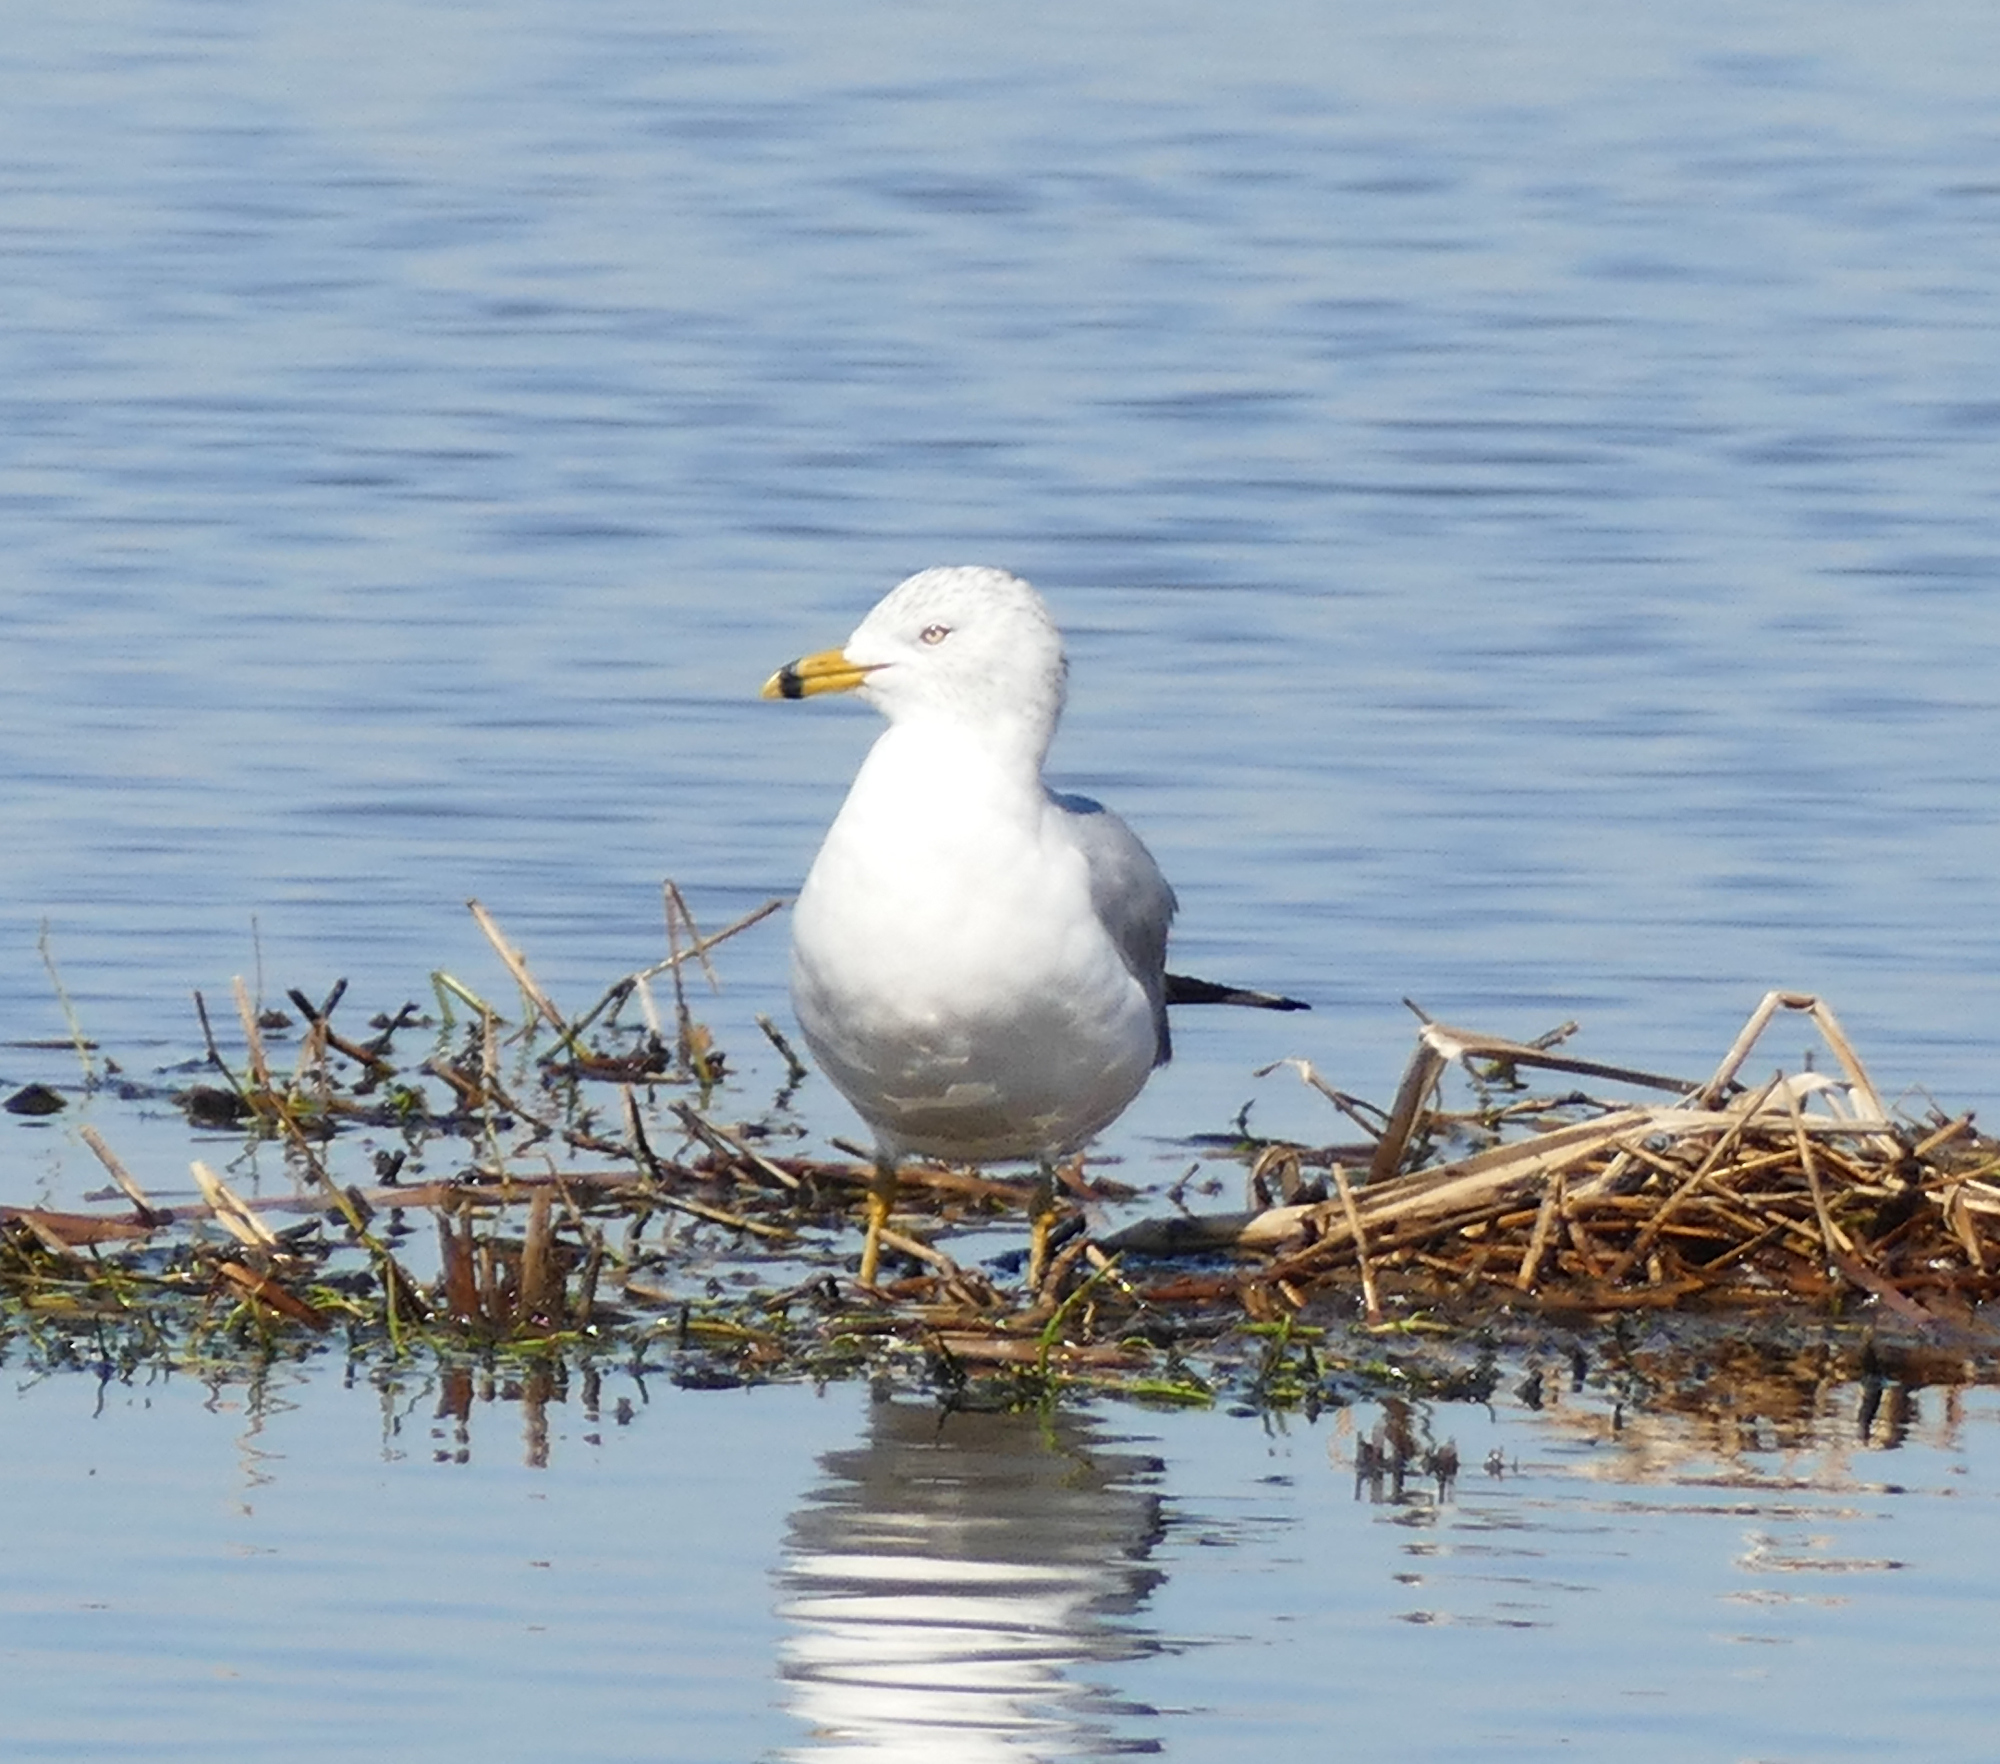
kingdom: Animalia
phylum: Chordata
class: Aves
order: Charadriiformes
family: Laridae
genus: Larus
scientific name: Larus delawarensis
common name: Ring-billed gull
